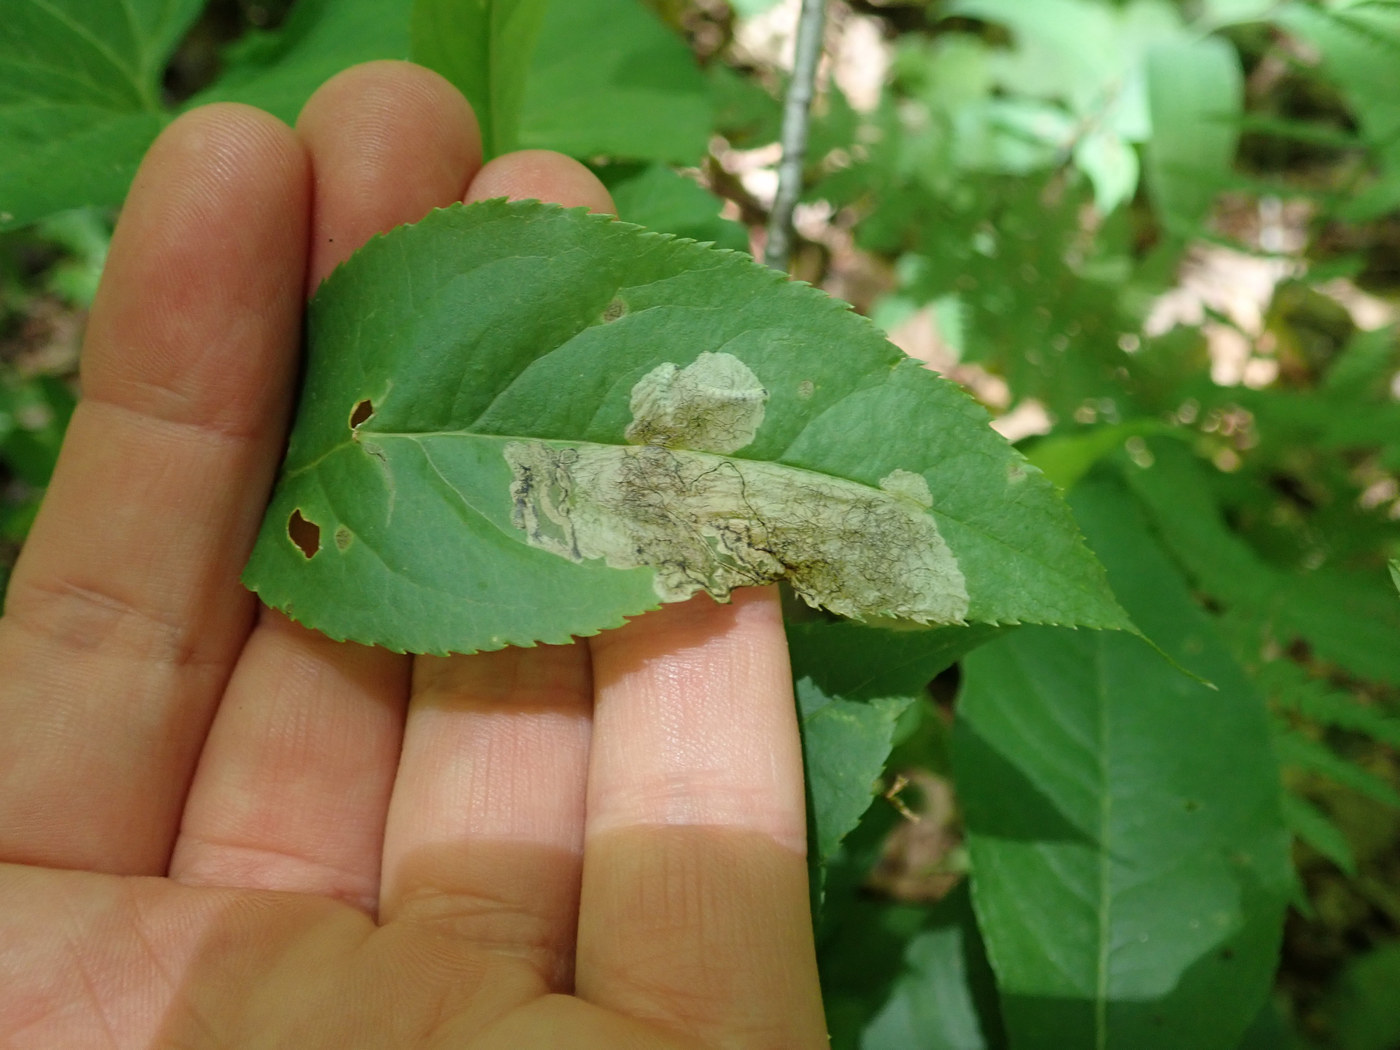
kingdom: Animalia
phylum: Arthropoda
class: Insecta
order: Coleoptera
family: Curculionidae
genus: Orchestes
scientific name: Orchestes pallicornis
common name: Apple-flea weevil
